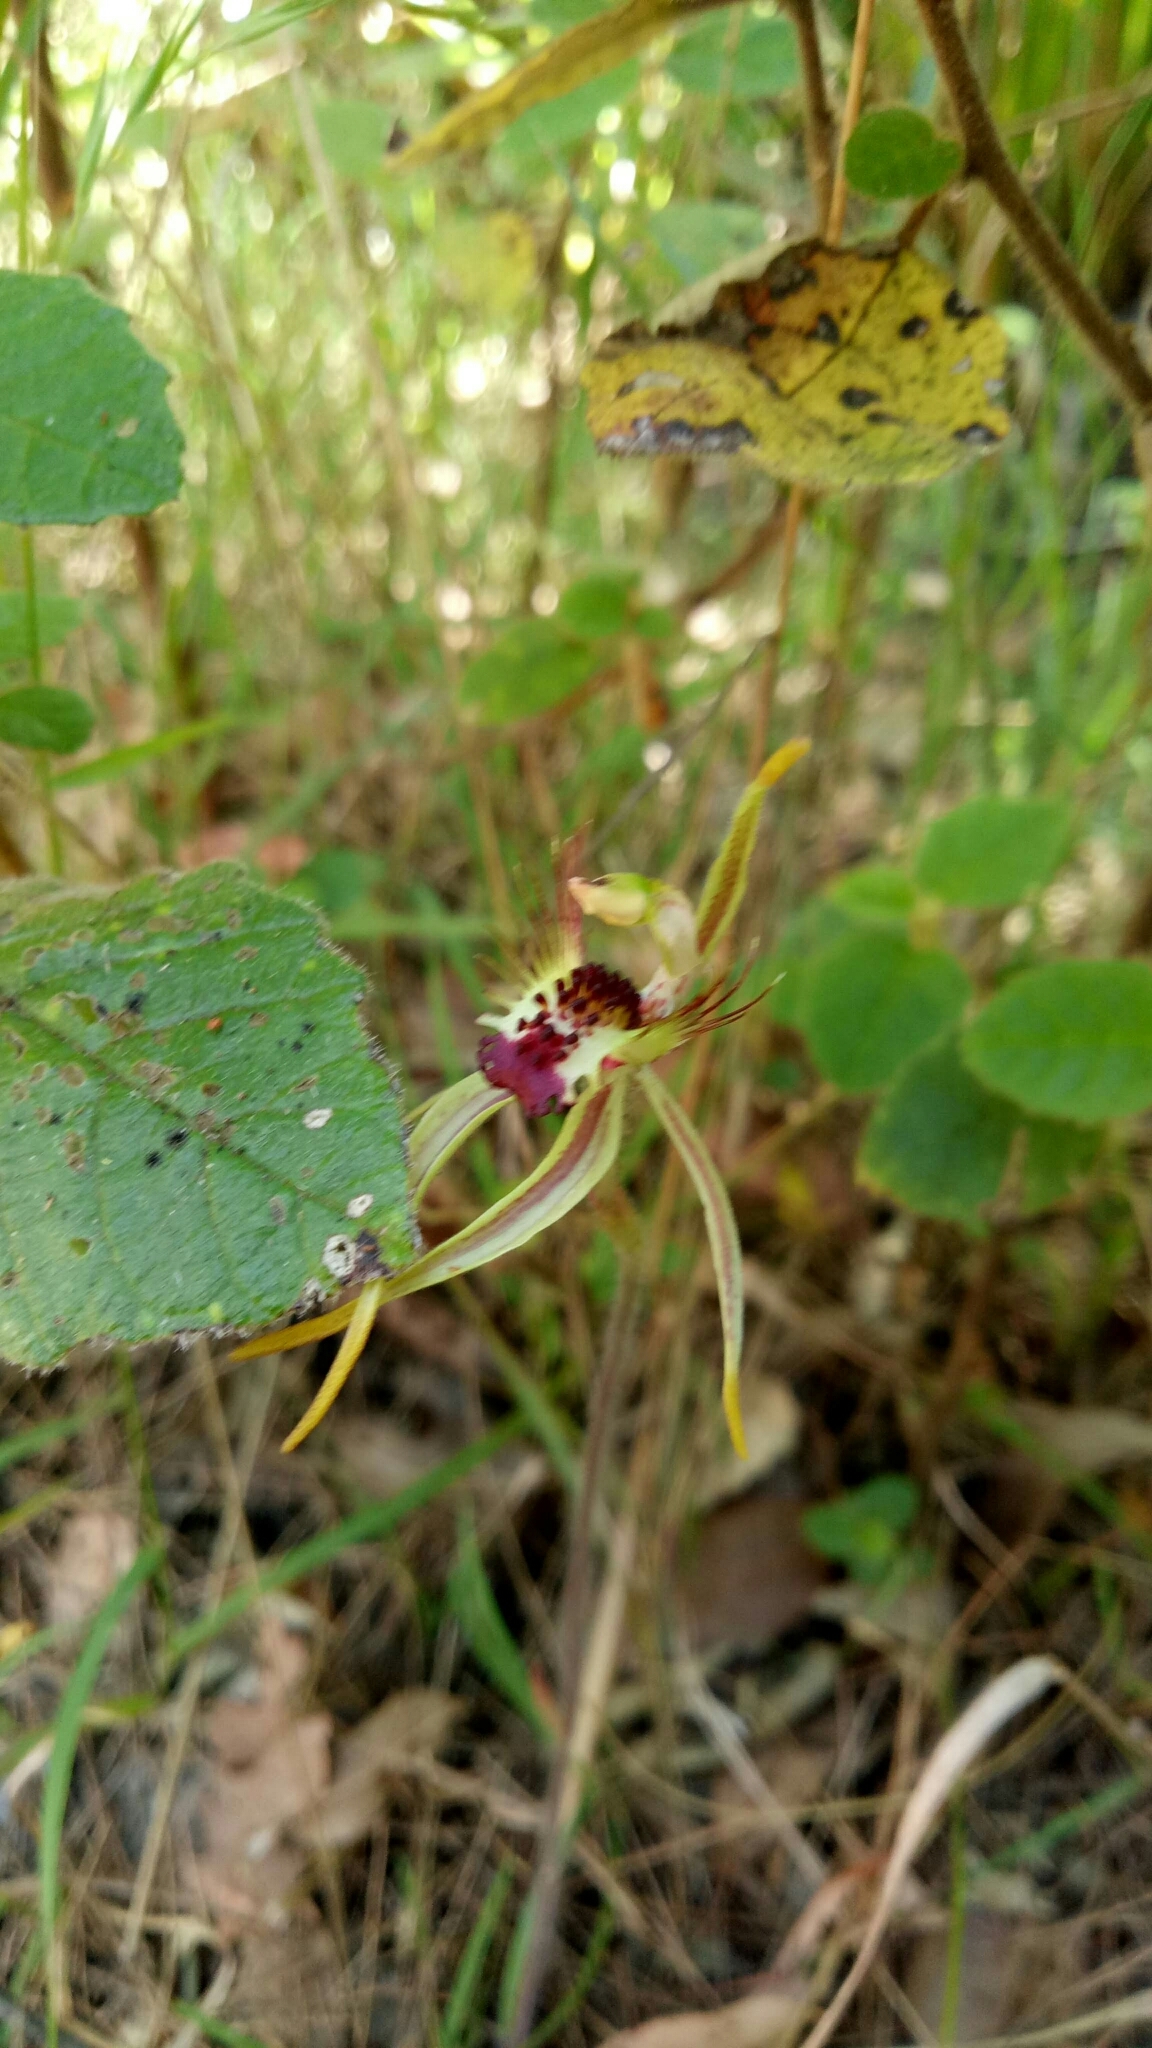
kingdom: Plantae
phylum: Tracheophyta
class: Liliopsida
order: Asparagales
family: Orchidaceae
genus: Caladenia
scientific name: Caladenia corynephora
